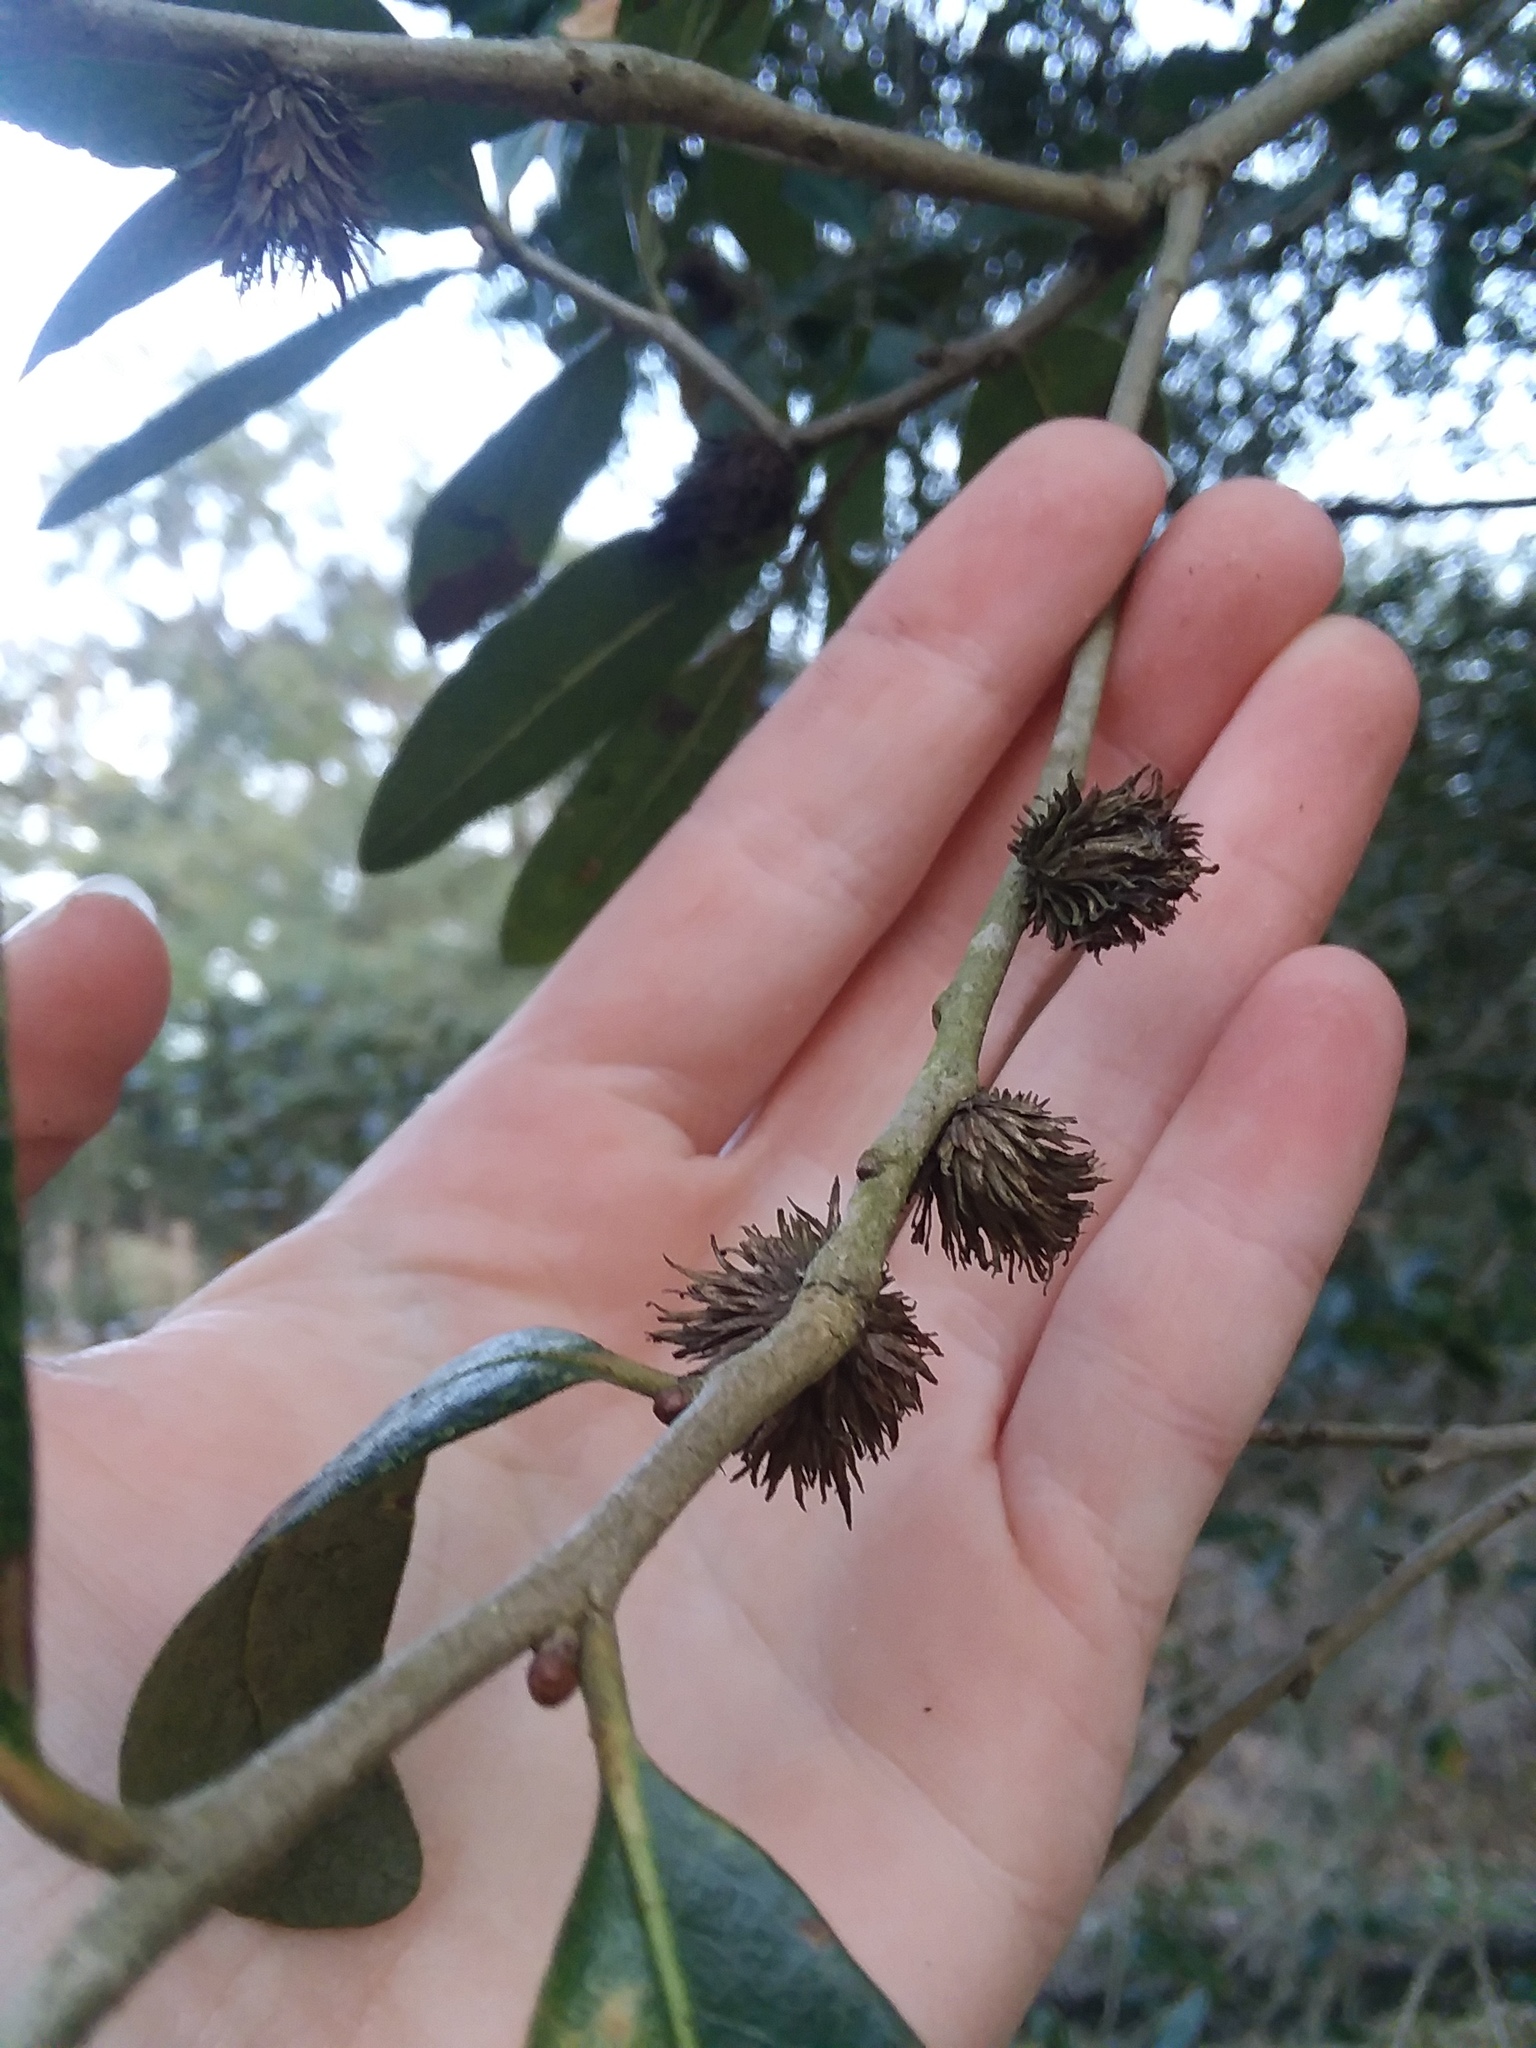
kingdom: Animalia
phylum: Arthropoda
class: Insecta
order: Hymenoptera
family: Cynipidae
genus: Andricus
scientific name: Andricus quercusfoliatus
